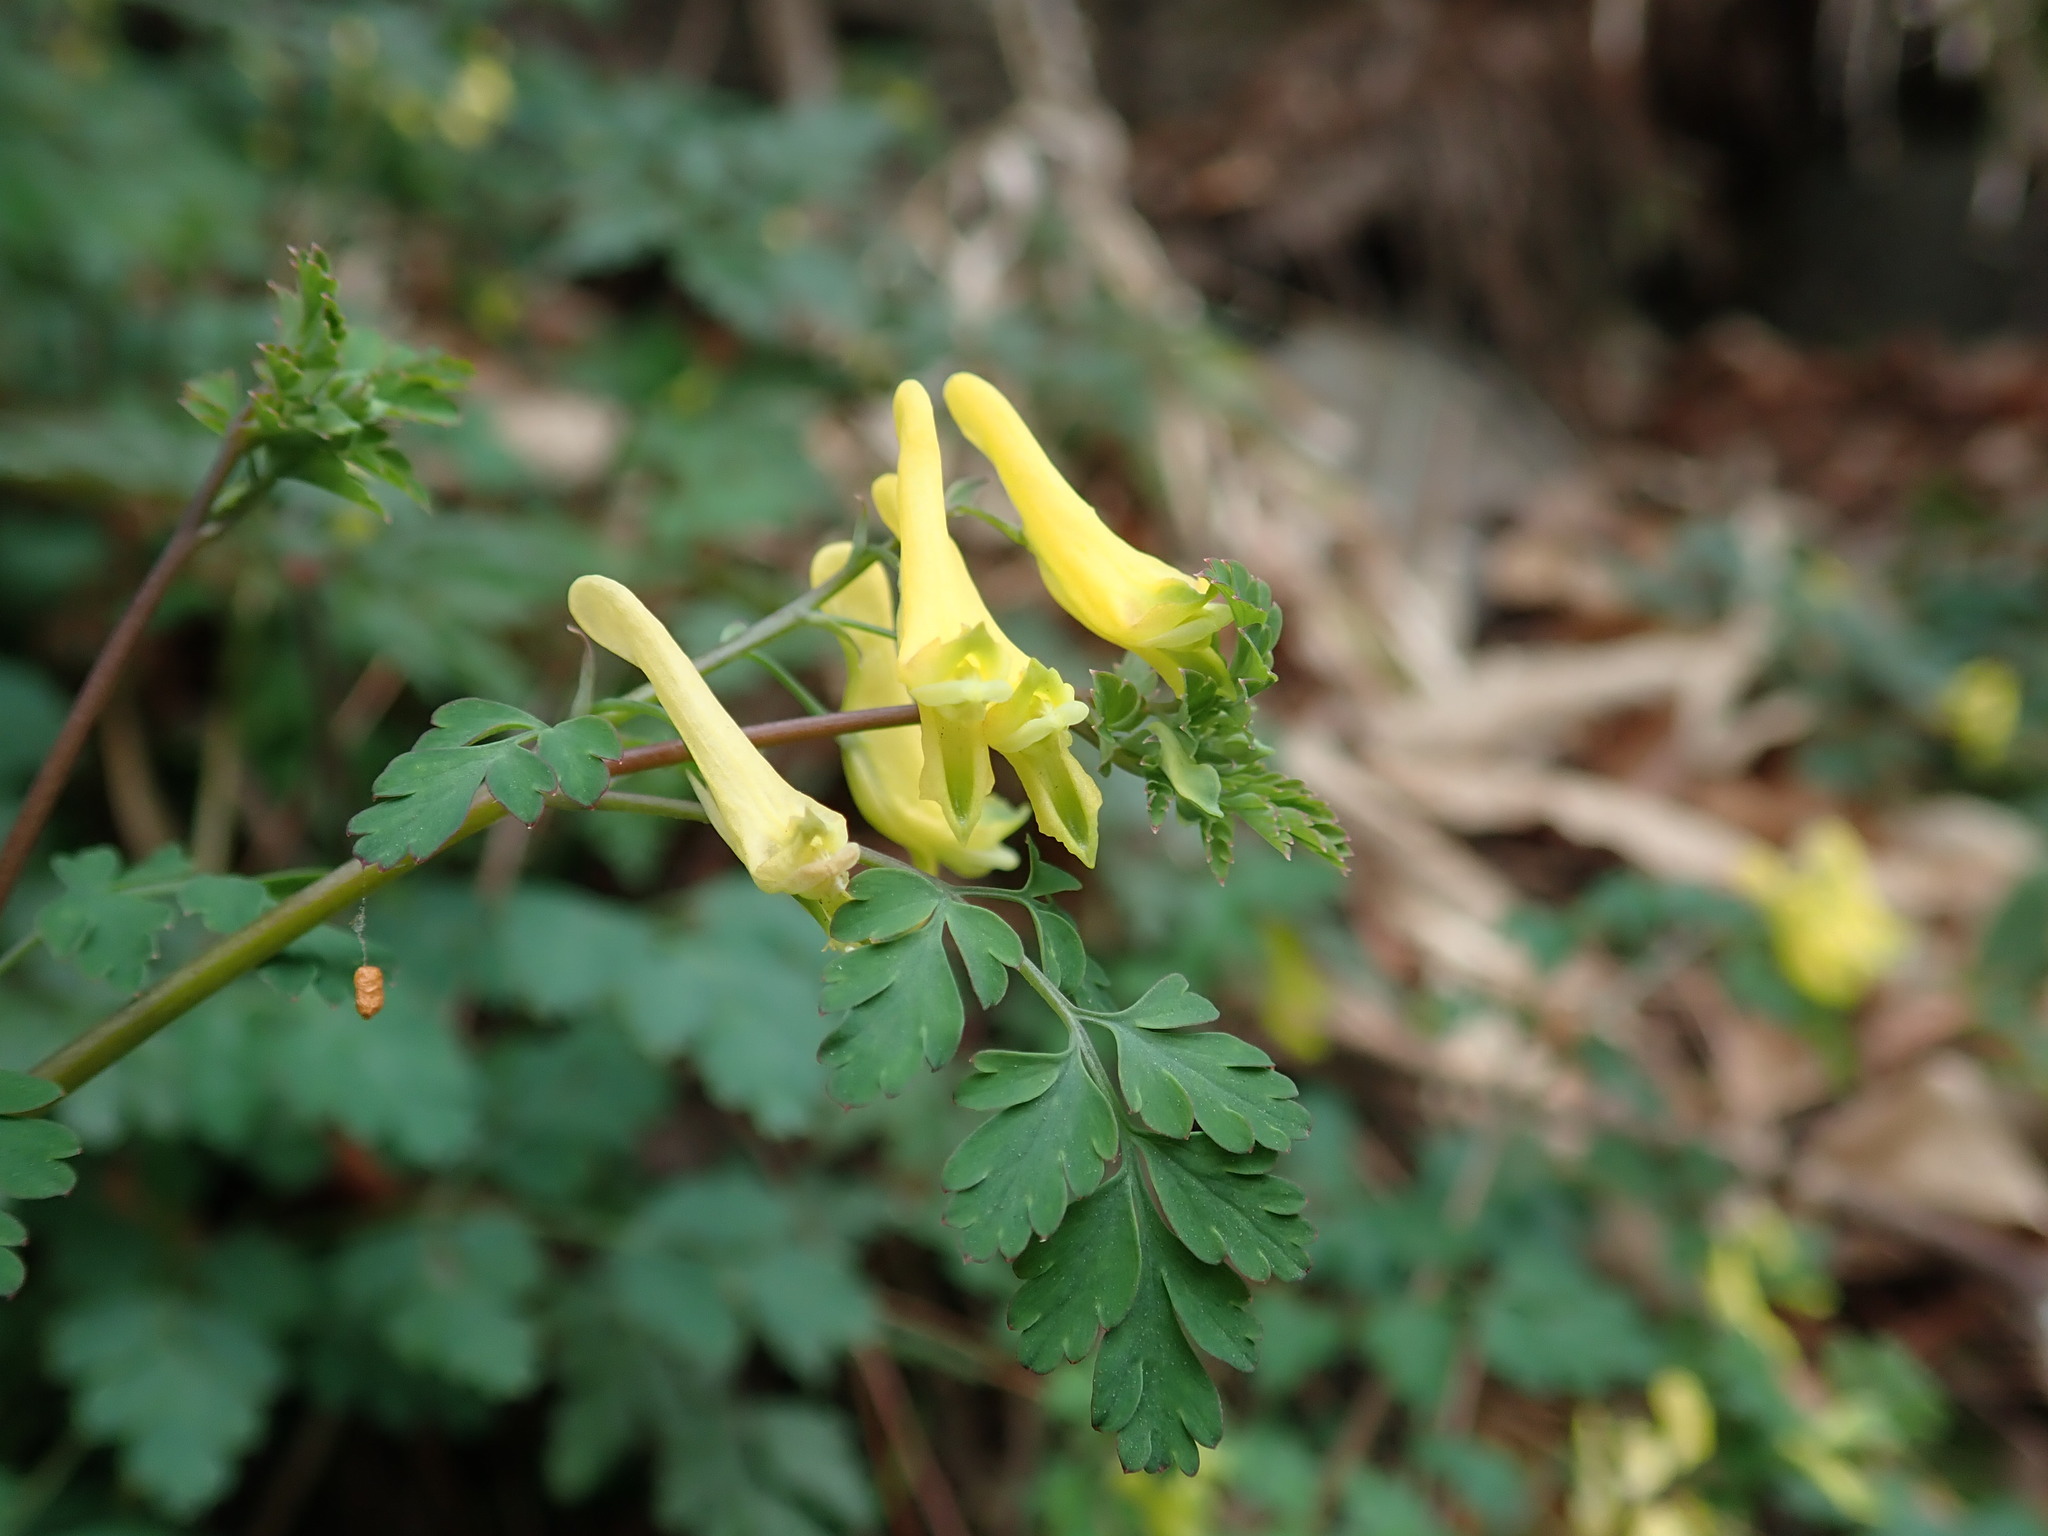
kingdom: Plantae
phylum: Tracheophyta
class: Magnoliopsida
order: Ranunculales
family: Papaveraceae
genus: Corydalis
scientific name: Corydalis pallida
